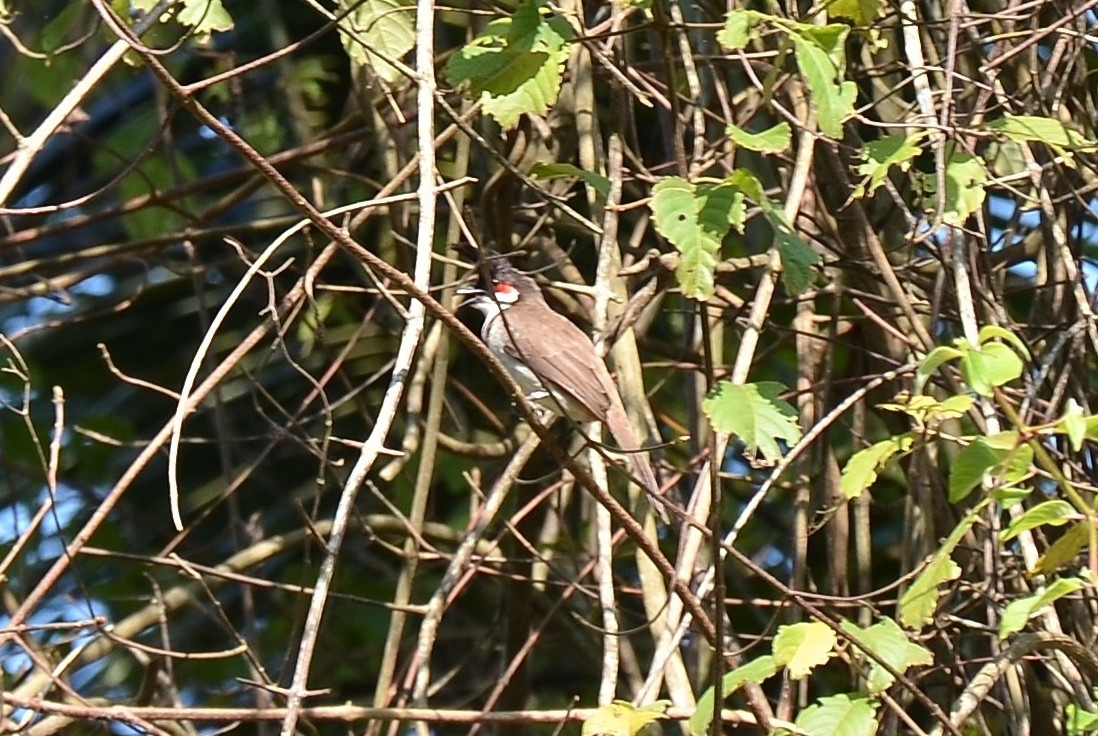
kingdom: Animalia
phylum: Chordata
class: Aves
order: Passeriformes
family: Pycnonotidae
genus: Pycnonotus
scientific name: Pycnonotus jocosus
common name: Red-whiskered bulbul
